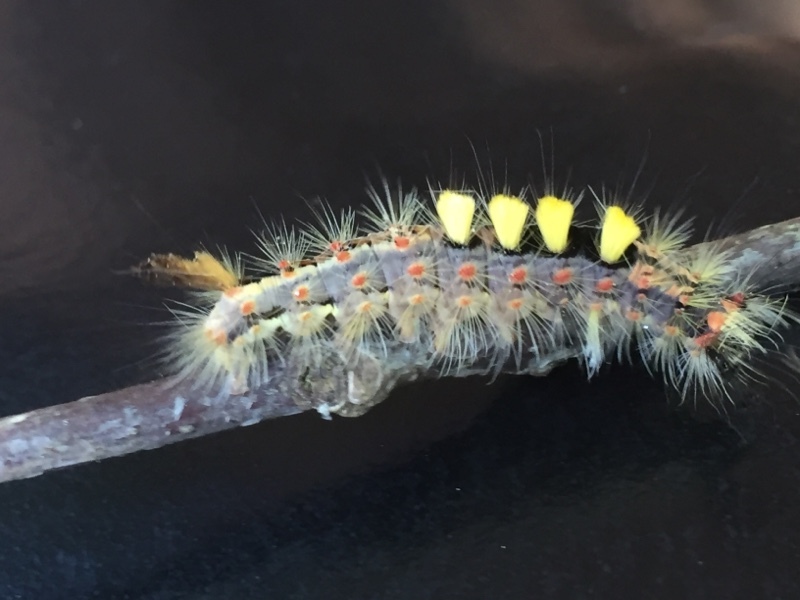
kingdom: Animalia
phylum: Arthropoda
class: Insecta
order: Lepidoptera
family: Erebidae
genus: Orgyia
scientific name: Orgyia antiqua
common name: Vapourer
